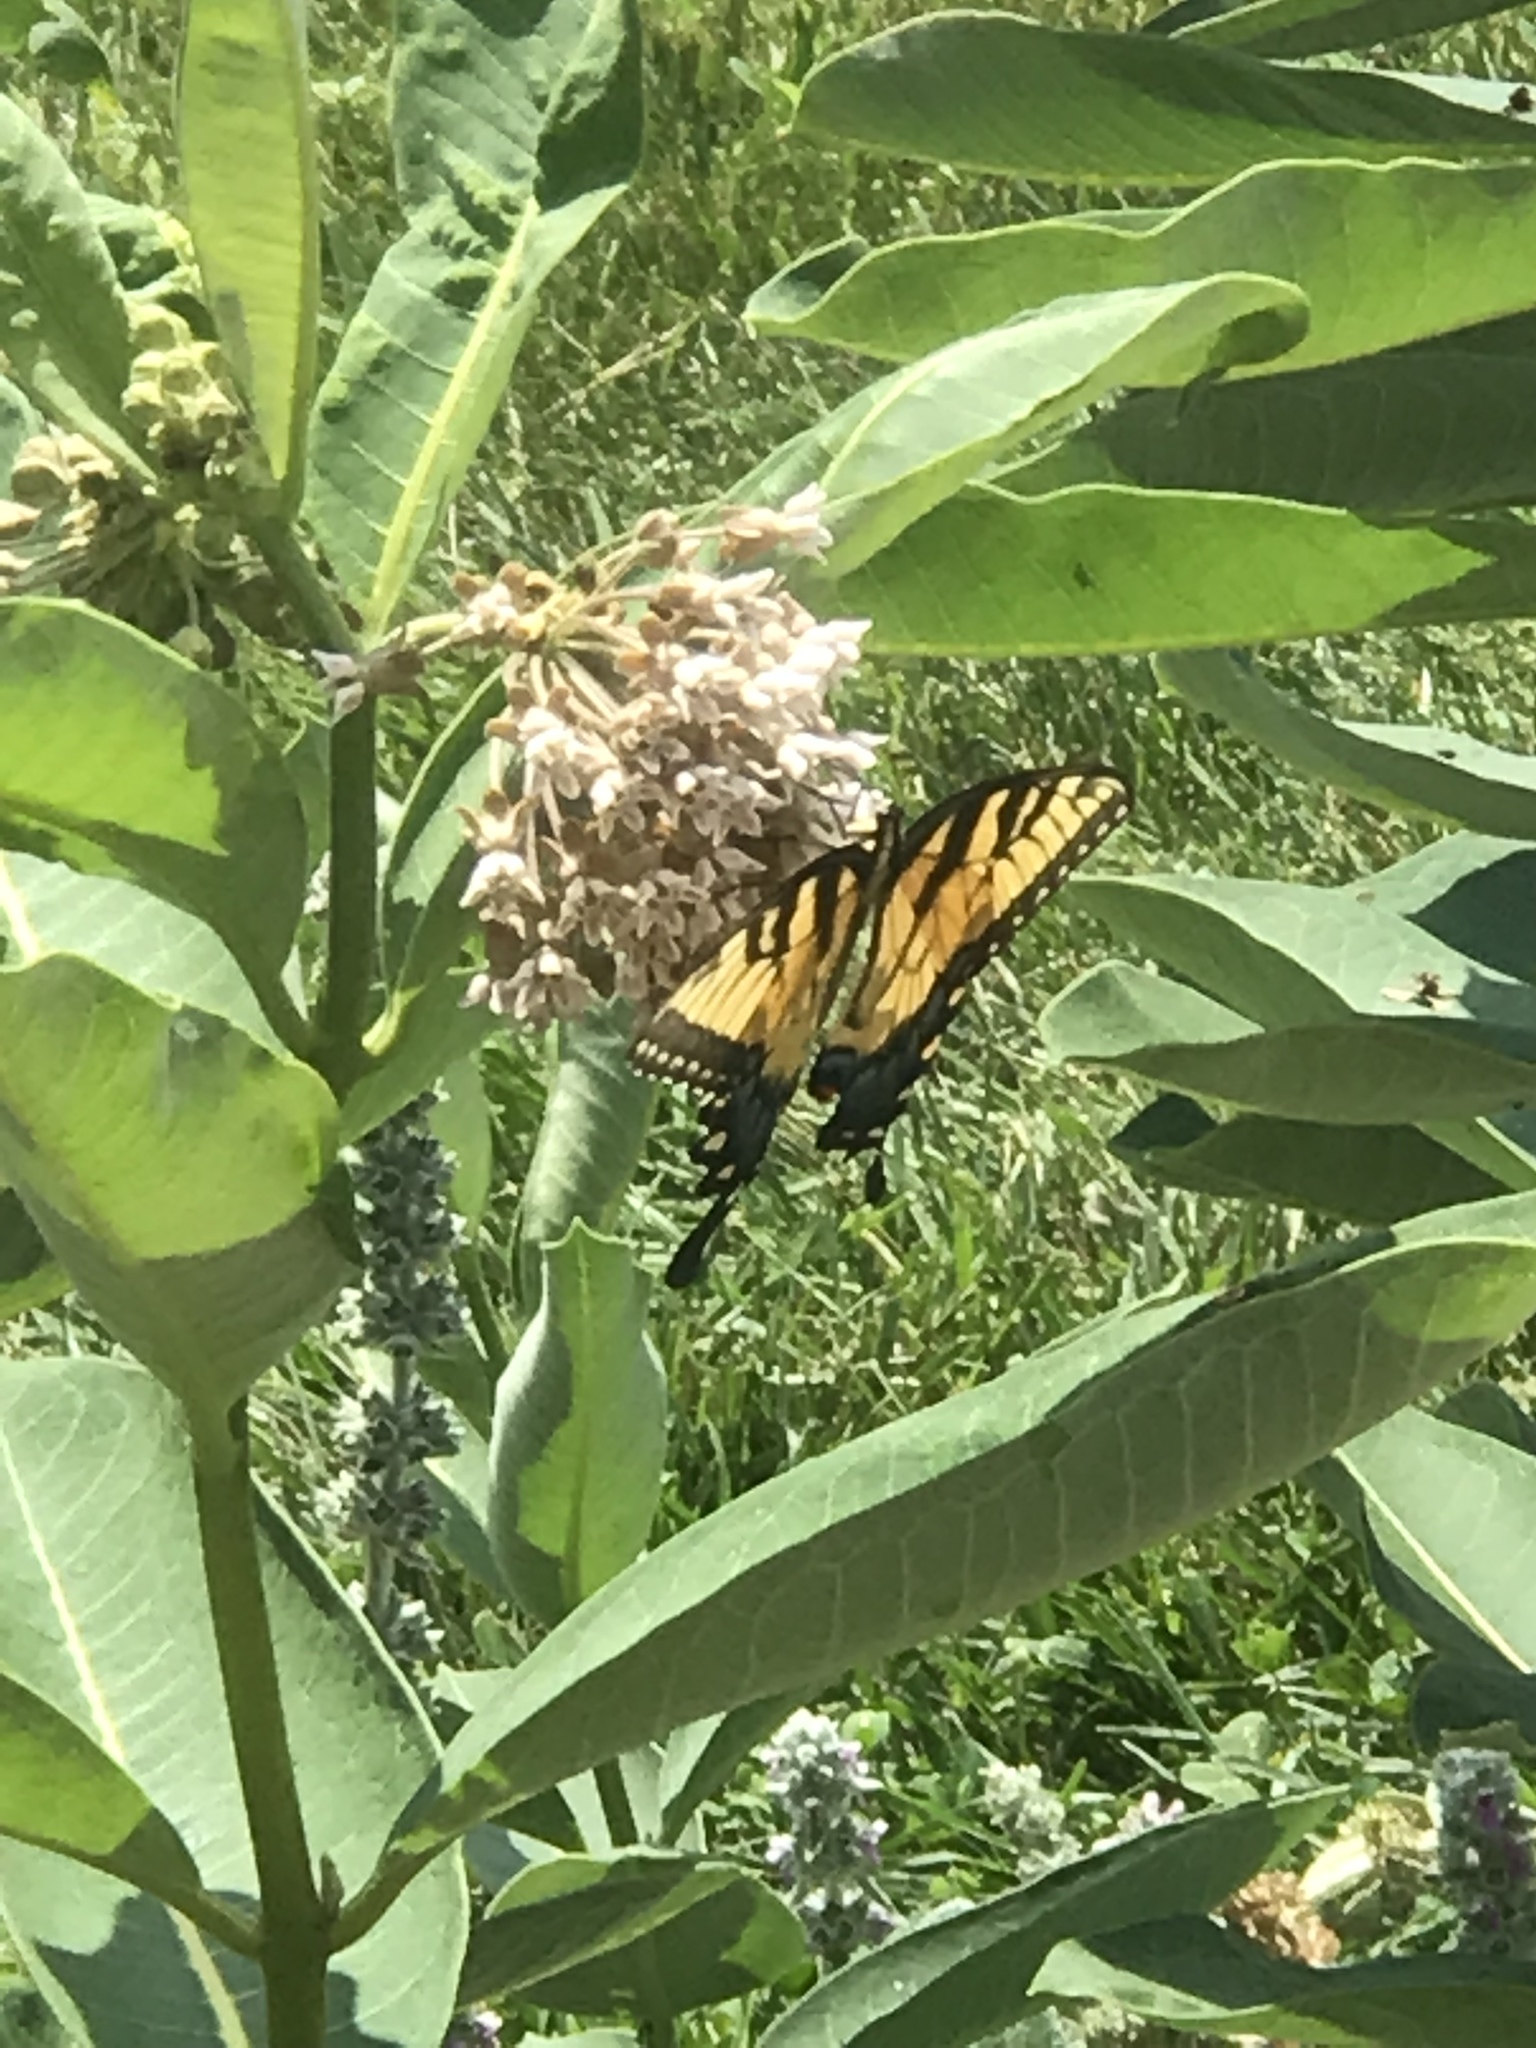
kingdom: Animalia
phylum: Arthropoda
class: Insecta
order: Lepidoptera
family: Papilionidae
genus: Papilio
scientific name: Papilio glaucus
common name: Tiger swallowtail
